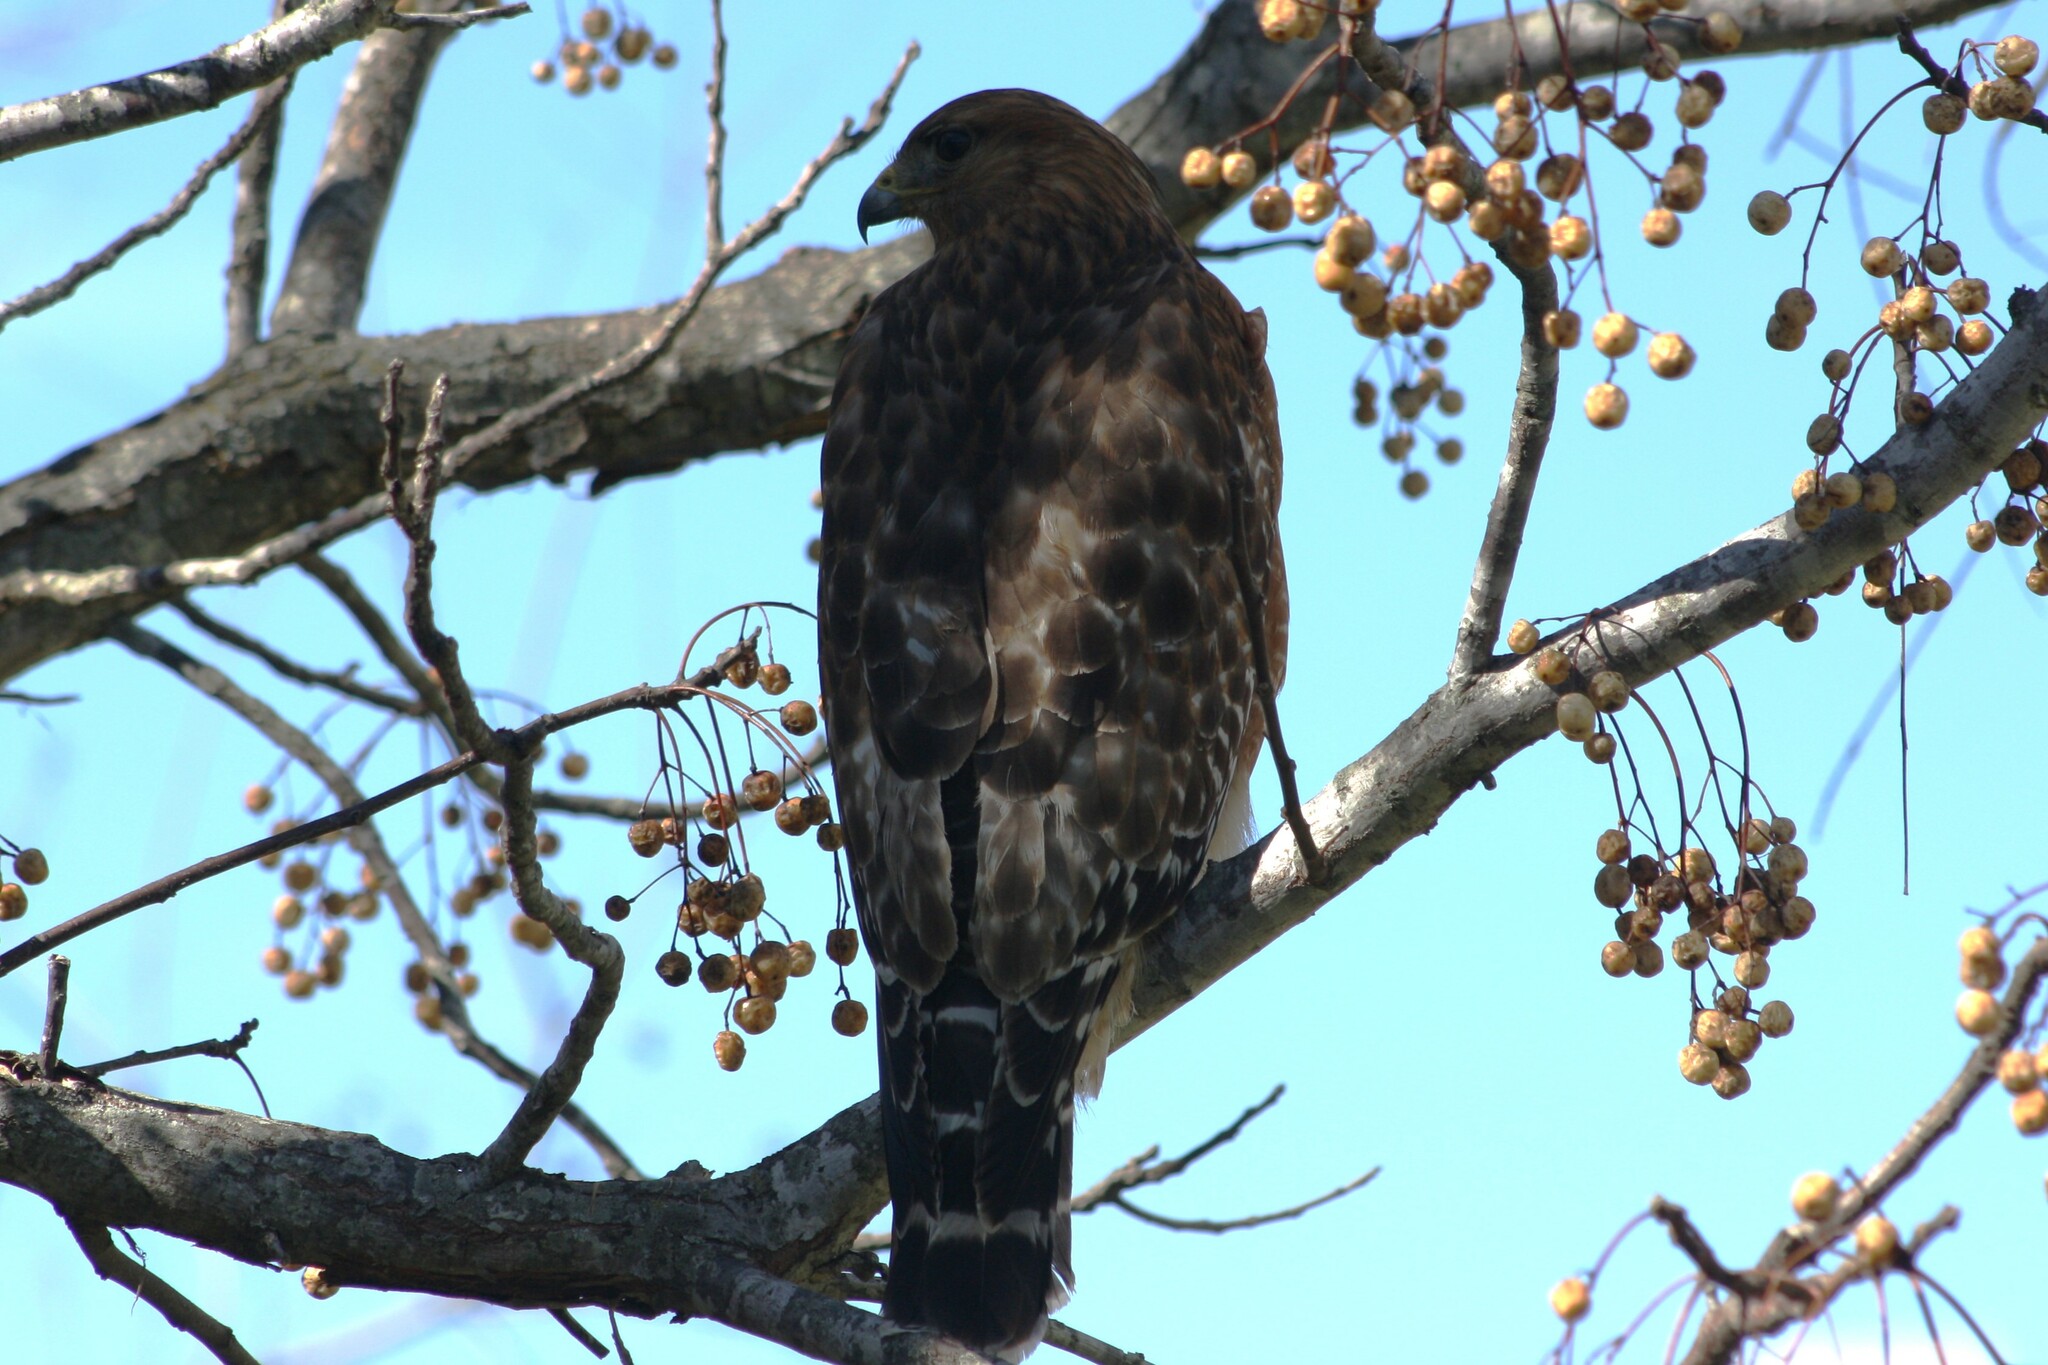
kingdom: Animalia
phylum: Chordata
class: Aves
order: Accipitriformes
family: Accipitridae
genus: Buteo
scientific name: Buteo lineatus
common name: Red-shouldered hawk
